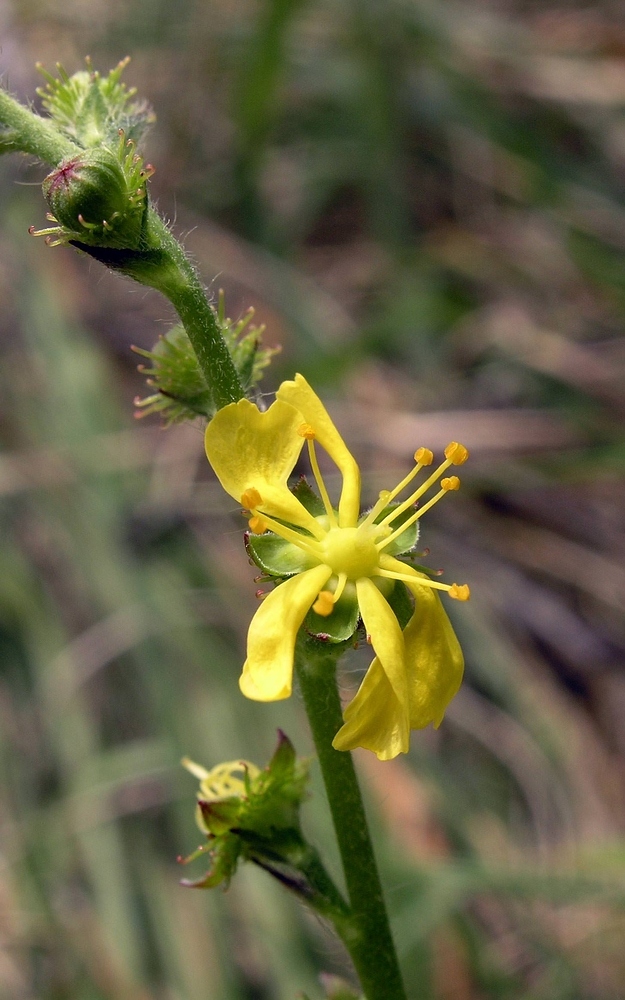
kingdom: Plantae
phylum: Tracheophyta
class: Magnoliopsida
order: Rosales
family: Rosaceae
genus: Agrimonia
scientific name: Agrimonia eupatoria
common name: Agrimony
